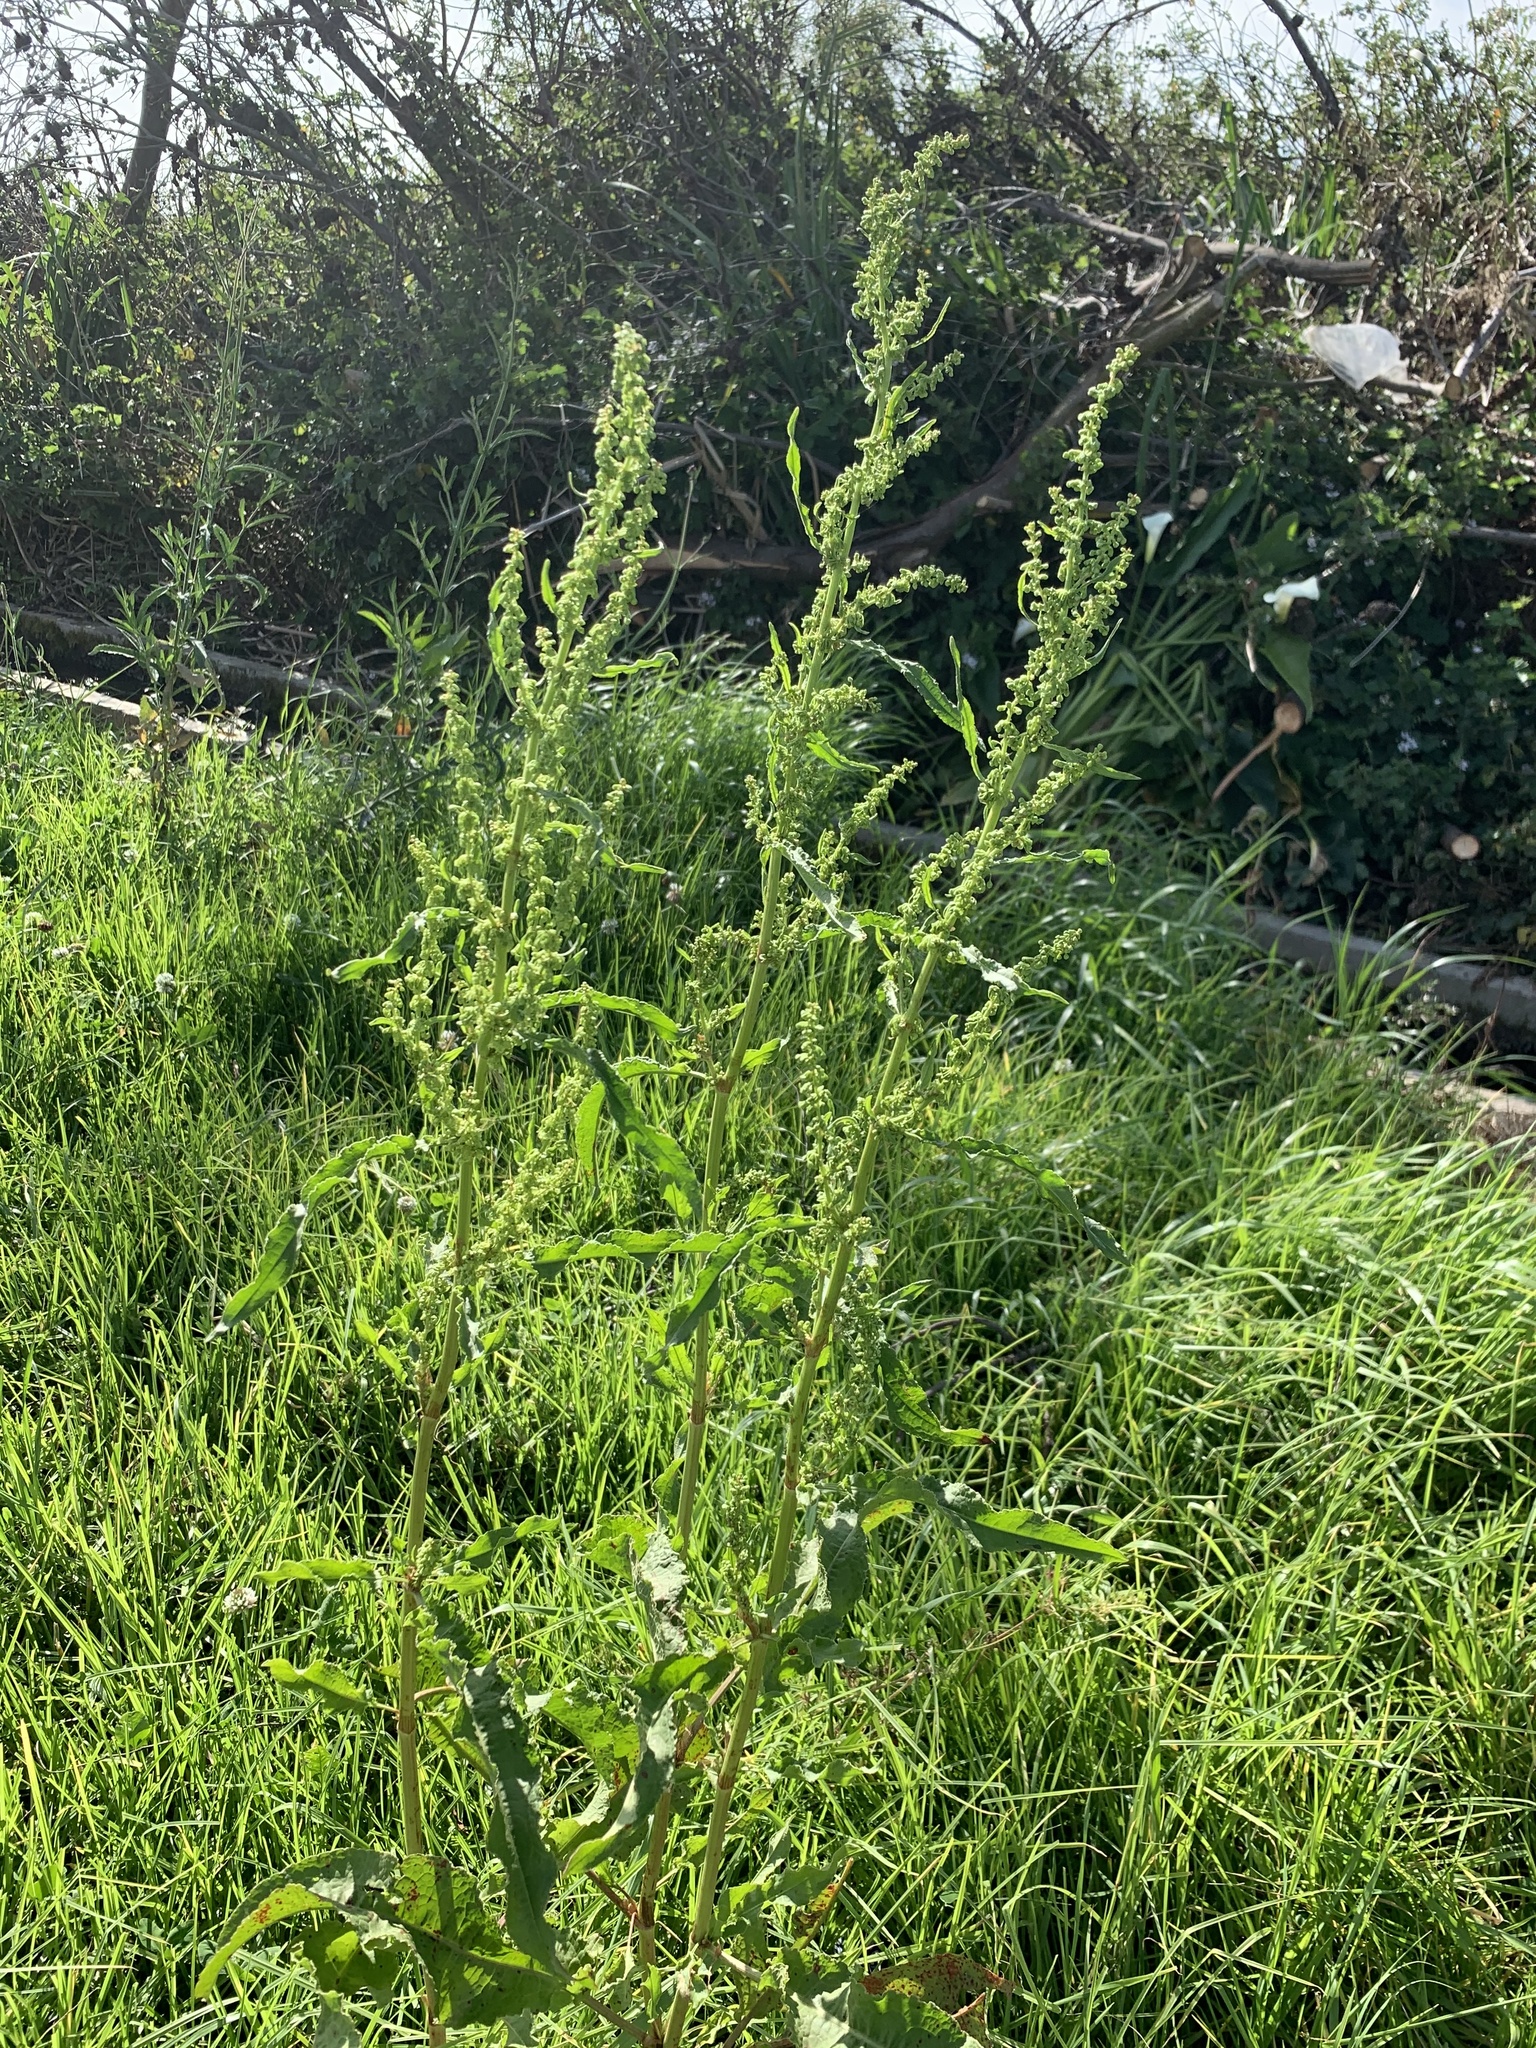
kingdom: Plantae
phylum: Tracheophyta
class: Magnoliopsida
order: Caryophyllales
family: Polygonaceae
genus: Rumex
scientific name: Rumex crispus
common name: Curled dock
